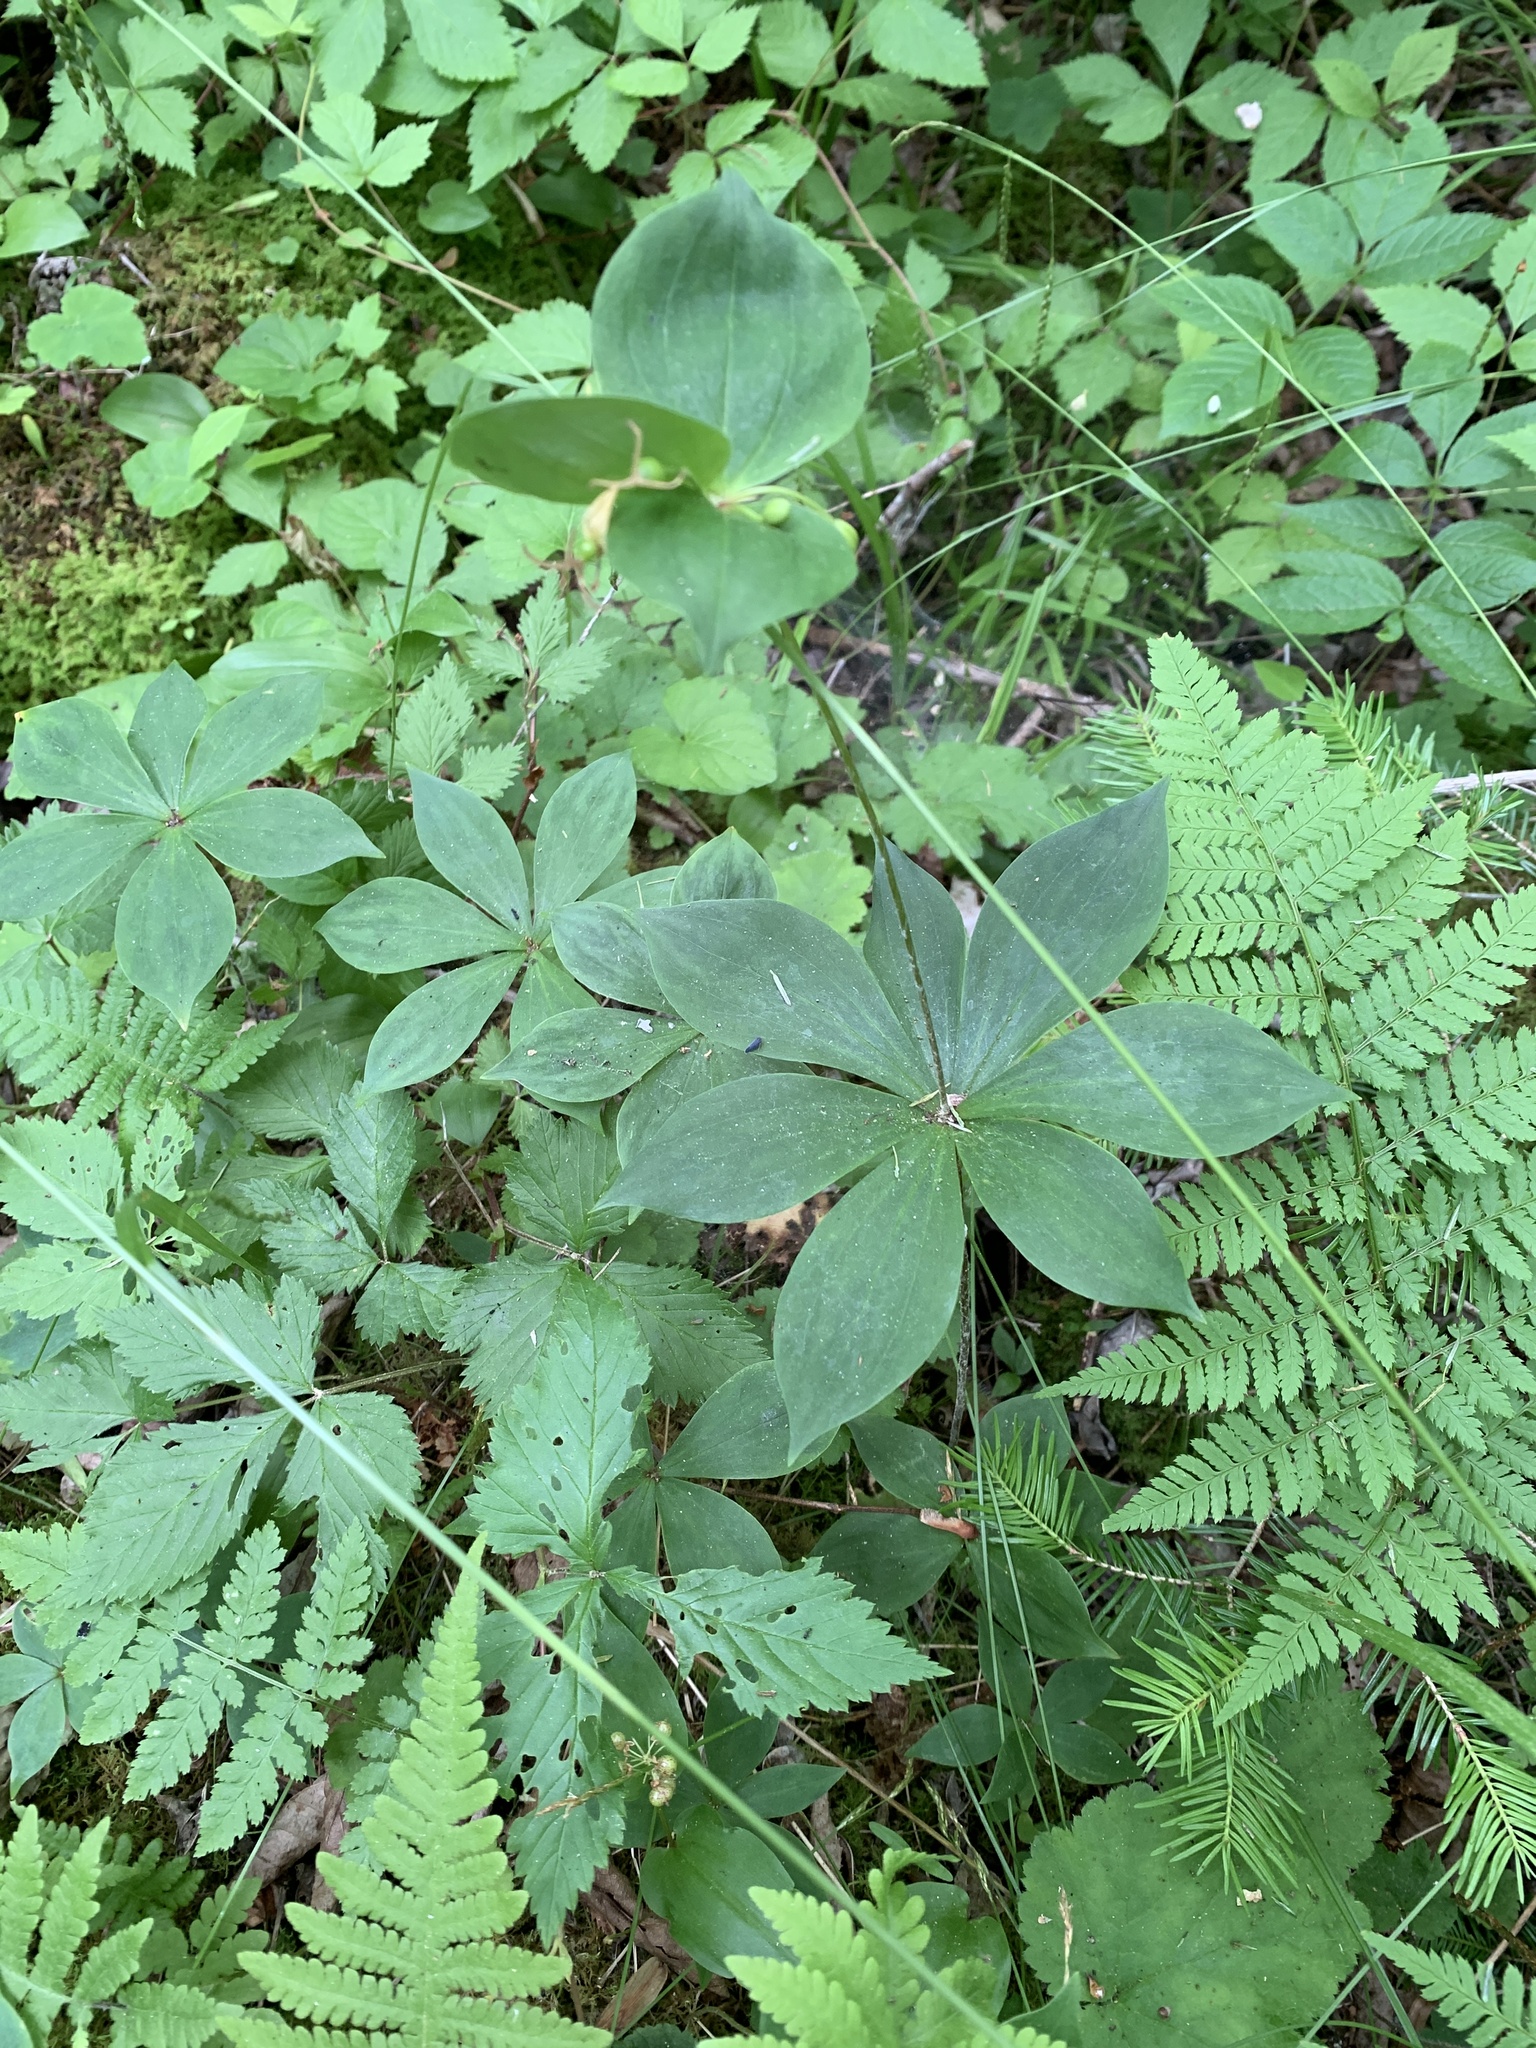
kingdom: Plantae
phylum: Tracheophyta
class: Liliopsida
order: Liliales
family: Liliaceae
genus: Medeola
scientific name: Medeola virginiana
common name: Indian cucumber-root
